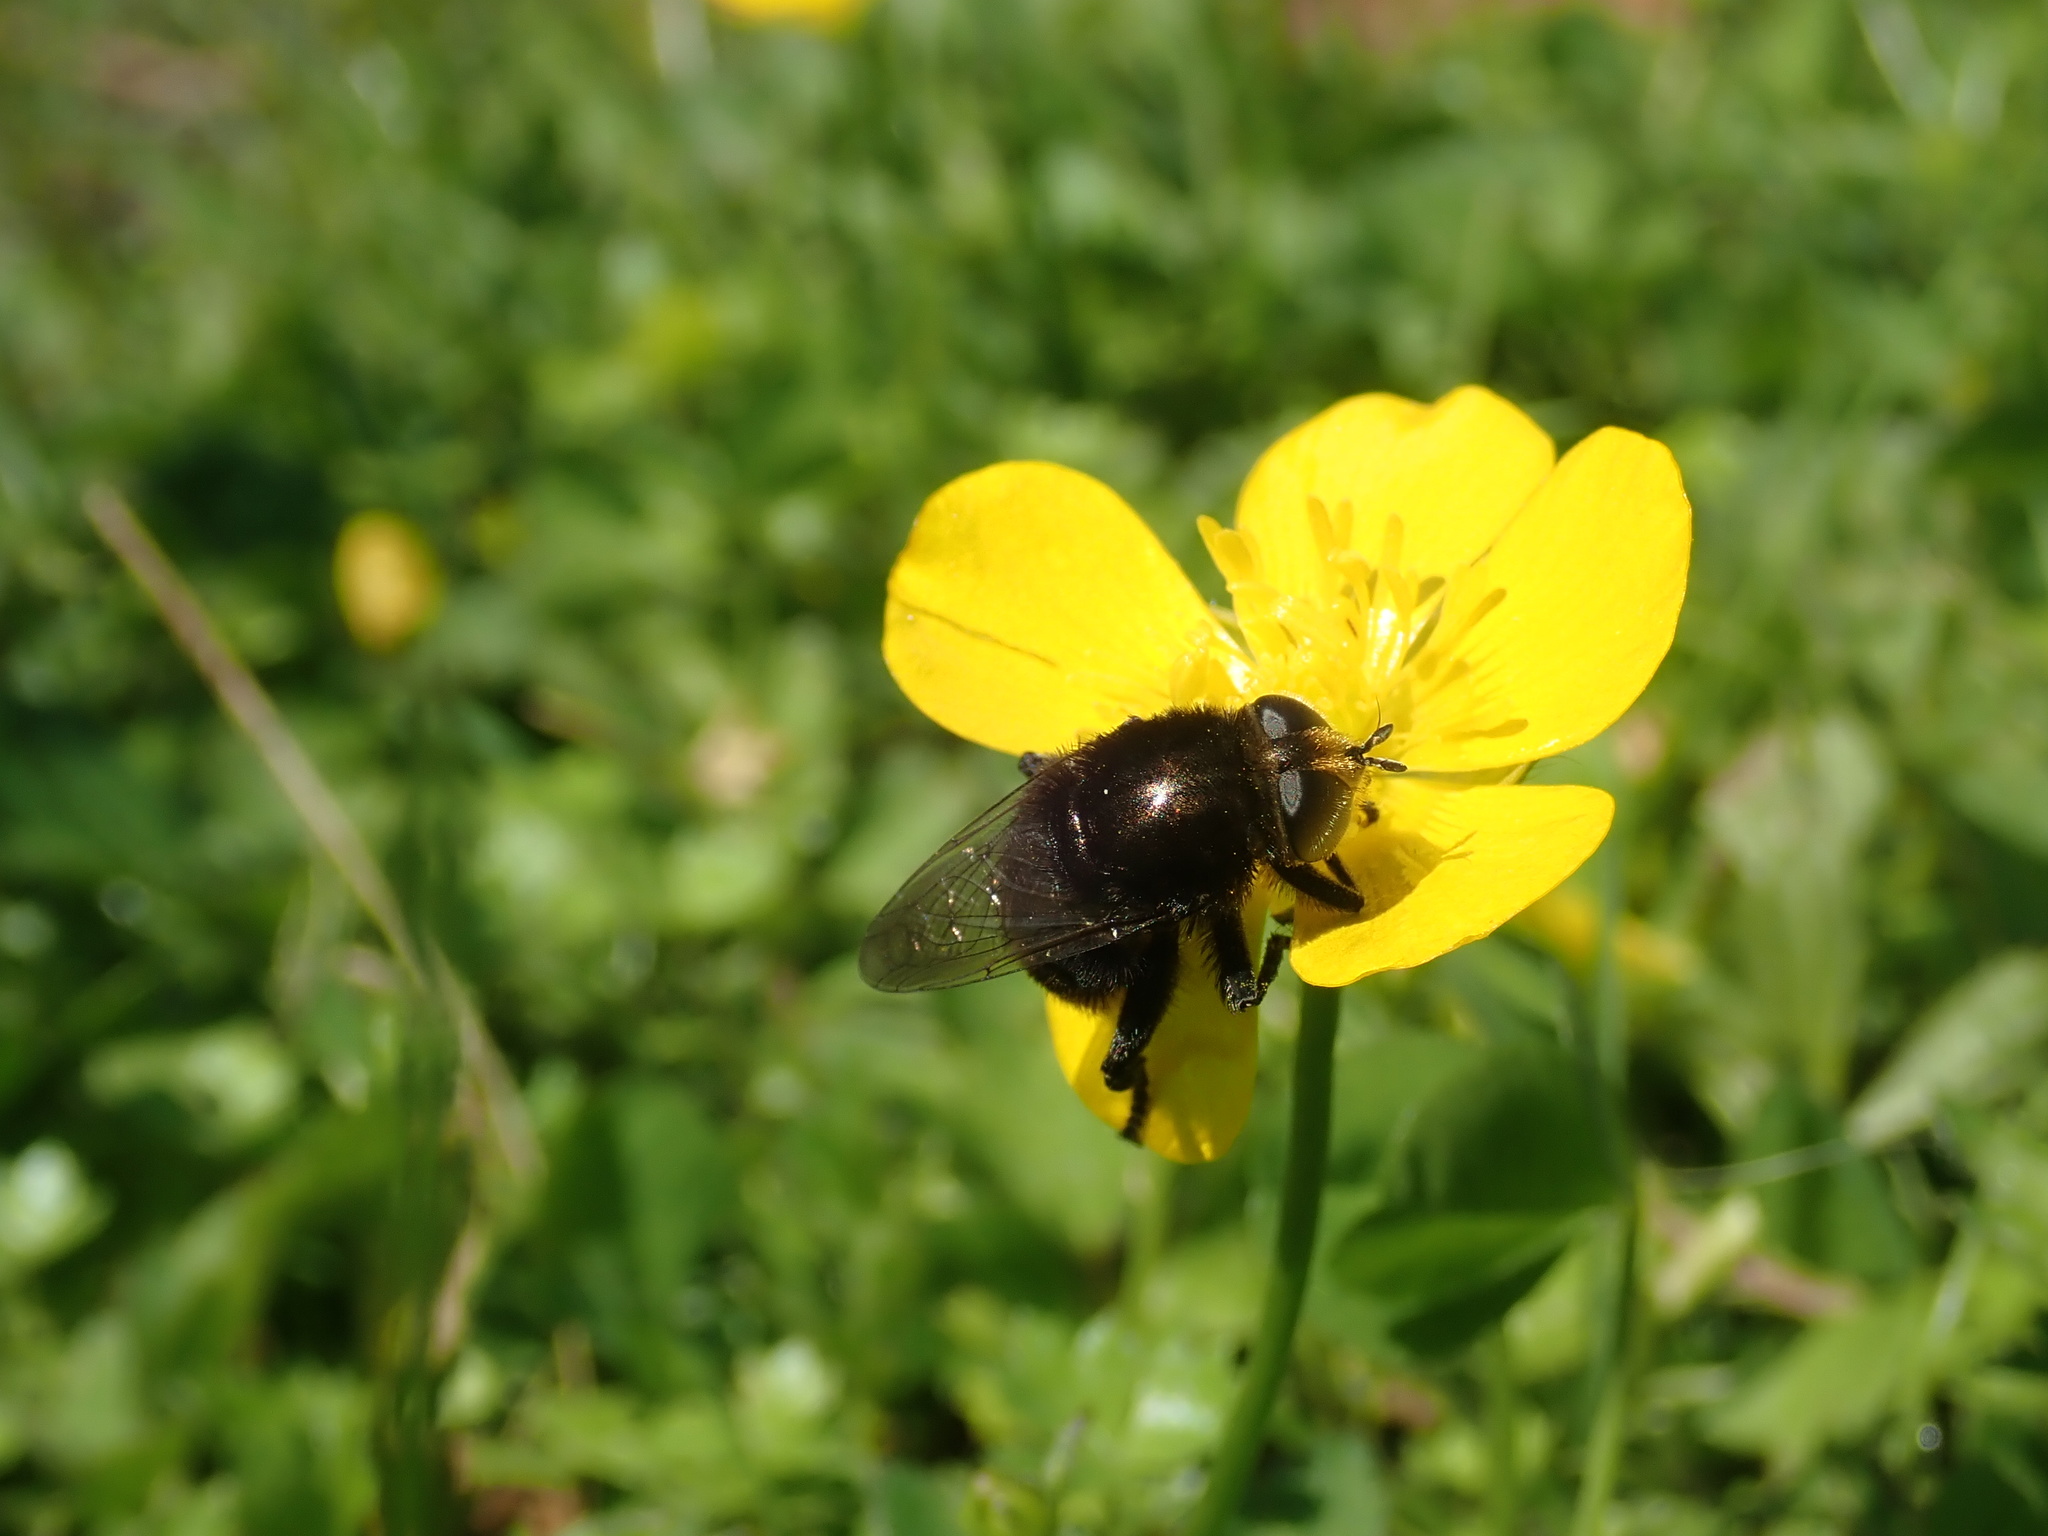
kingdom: Animalia
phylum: Arthropoda
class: Insecta
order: Diptera
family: Syrphidae
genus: Merodon
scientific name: Merodon equestris
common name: Greater bulb-fly
